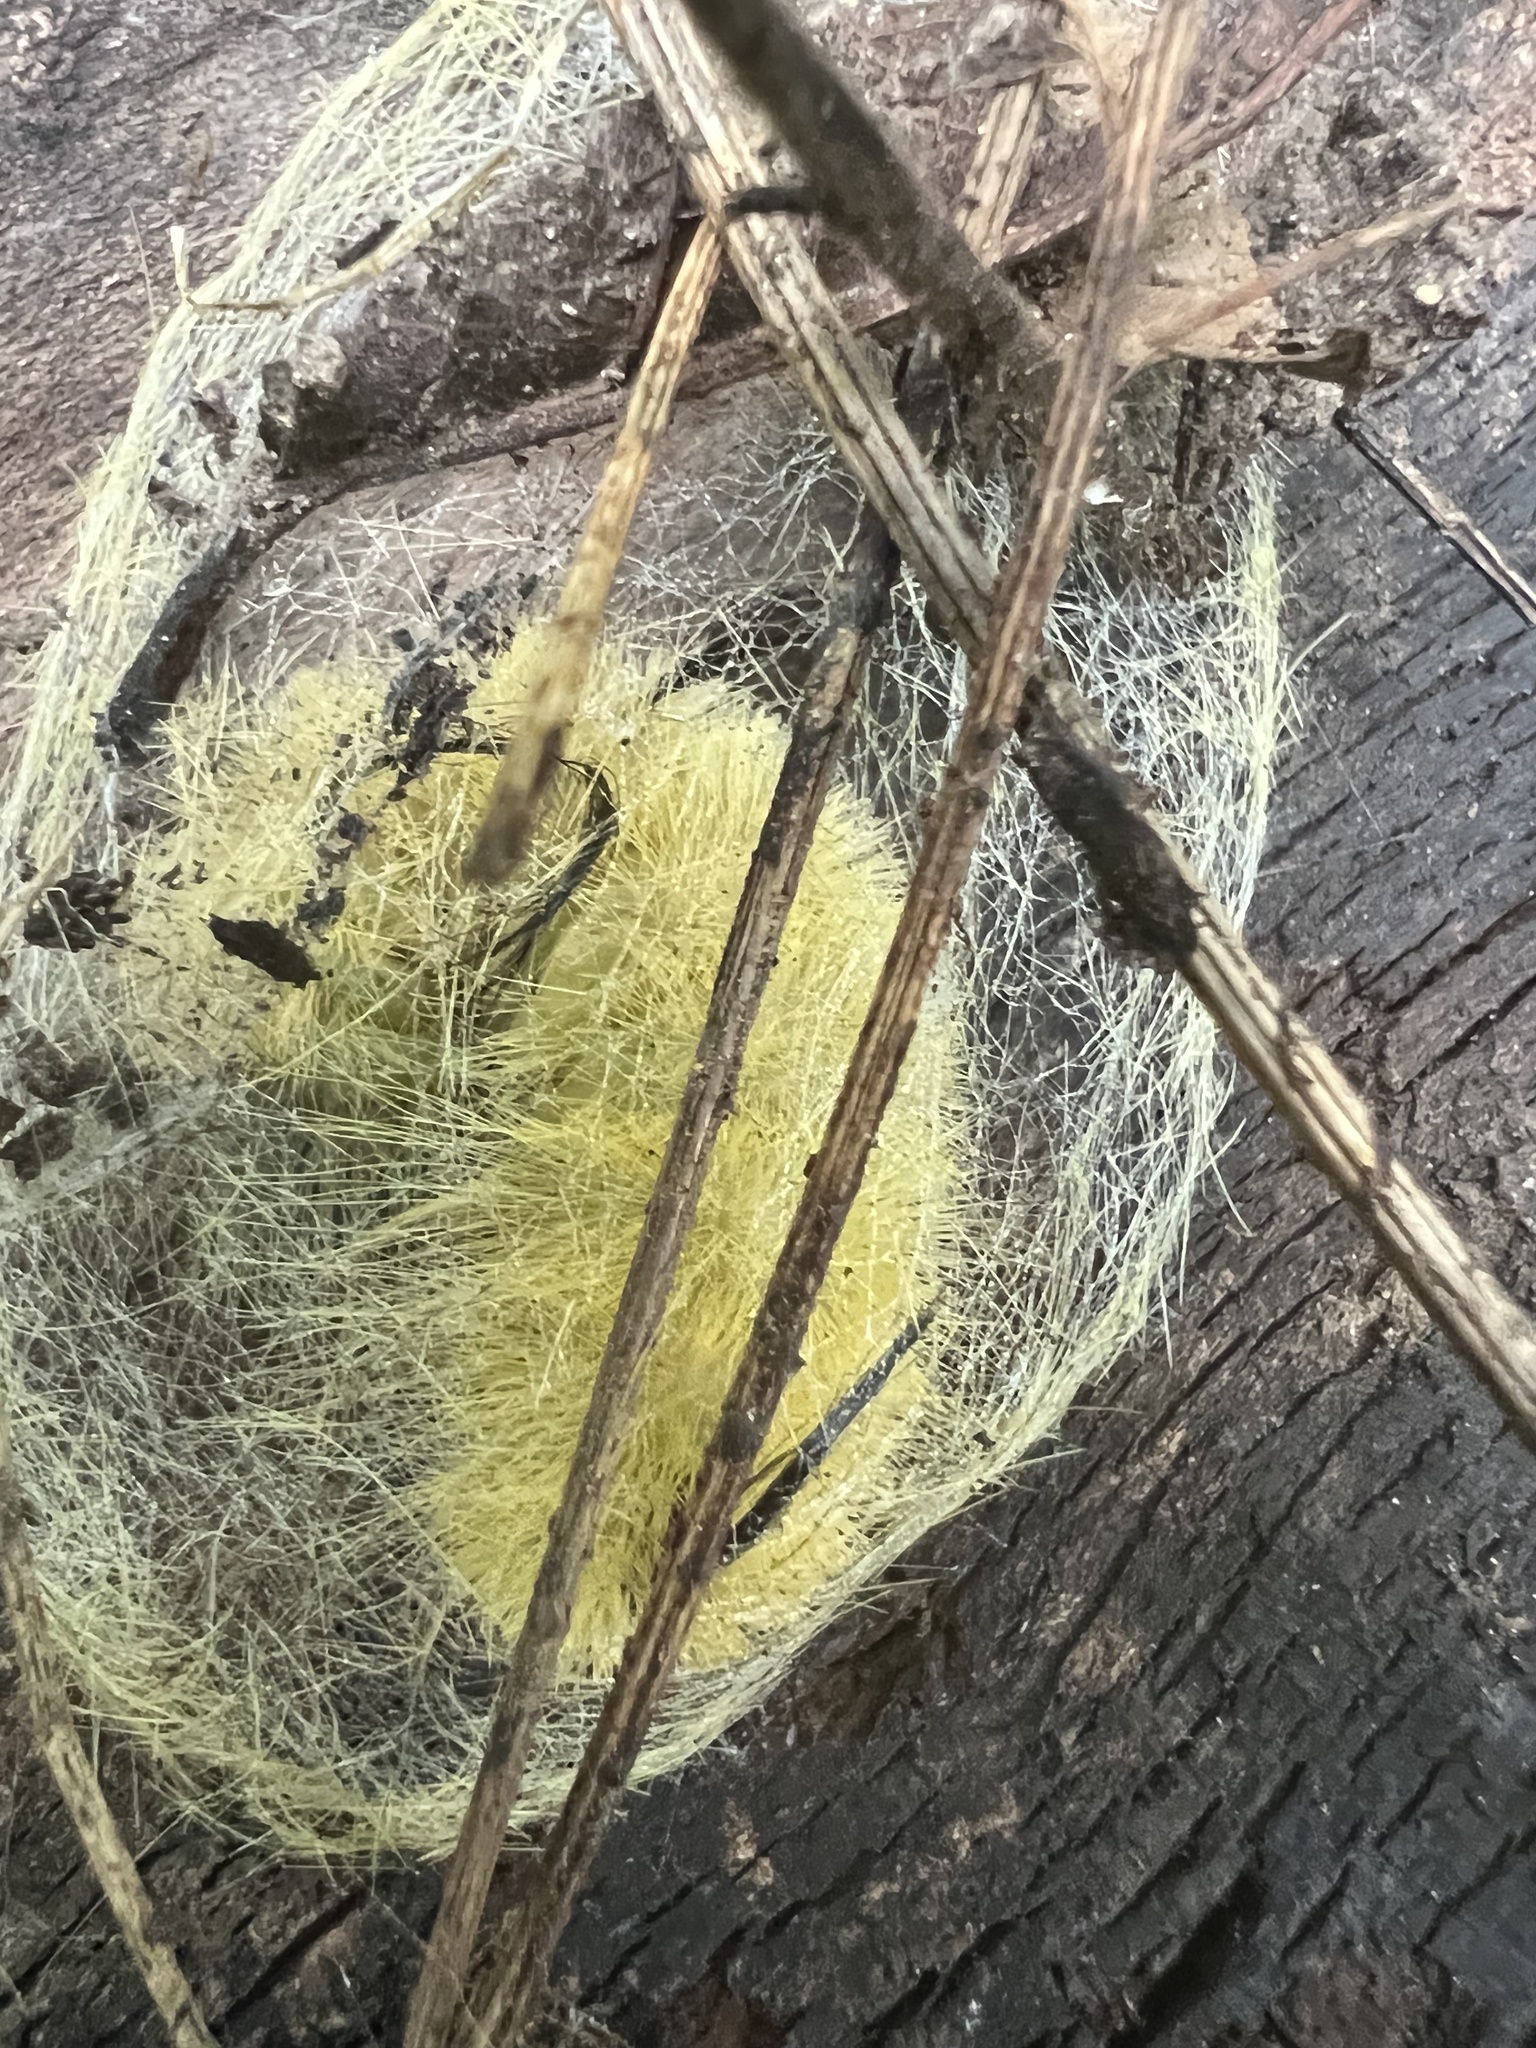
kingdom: Animalia
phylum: Arthropoda
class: Insecta
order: Lepidoptera
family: Noctuidae
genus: Acronicta
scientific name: Acronicta americana
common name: American dagger
